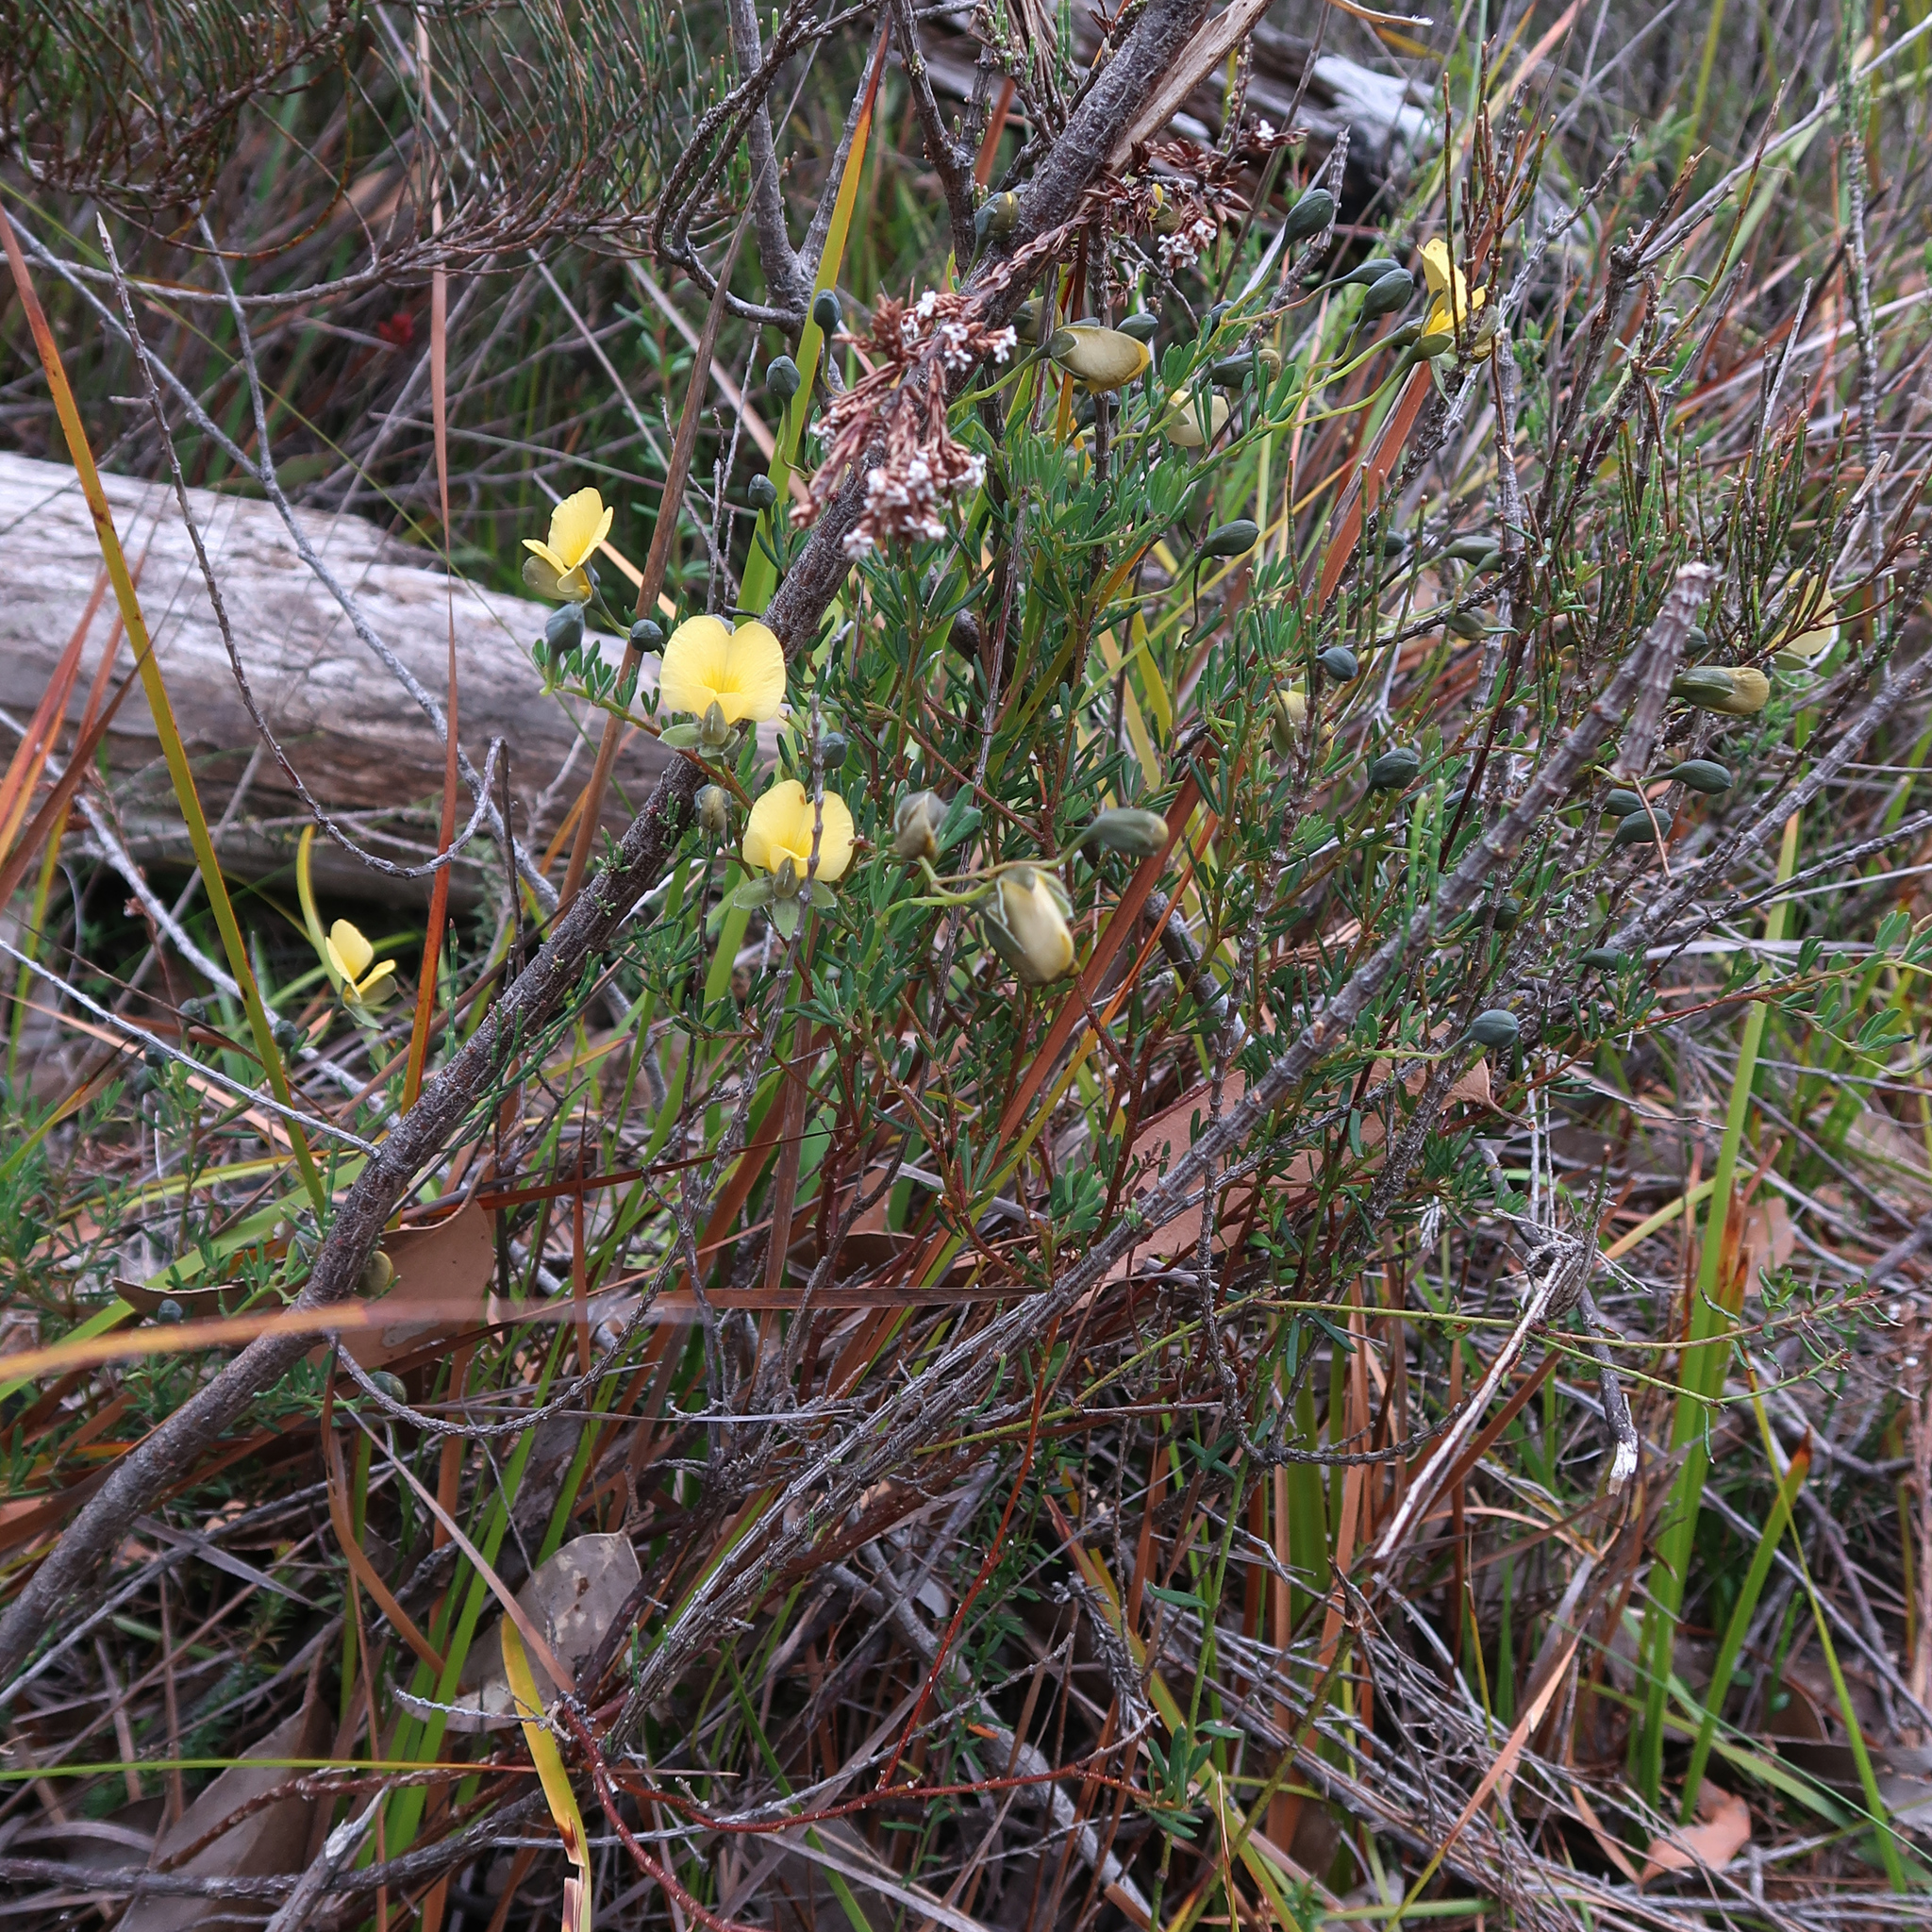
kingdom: Plantae
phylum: Tracheophyta
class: Magnoliopsida
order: Fabales
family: Fabaceae
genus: Gompholobium
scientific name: Gompholobium huegelii
